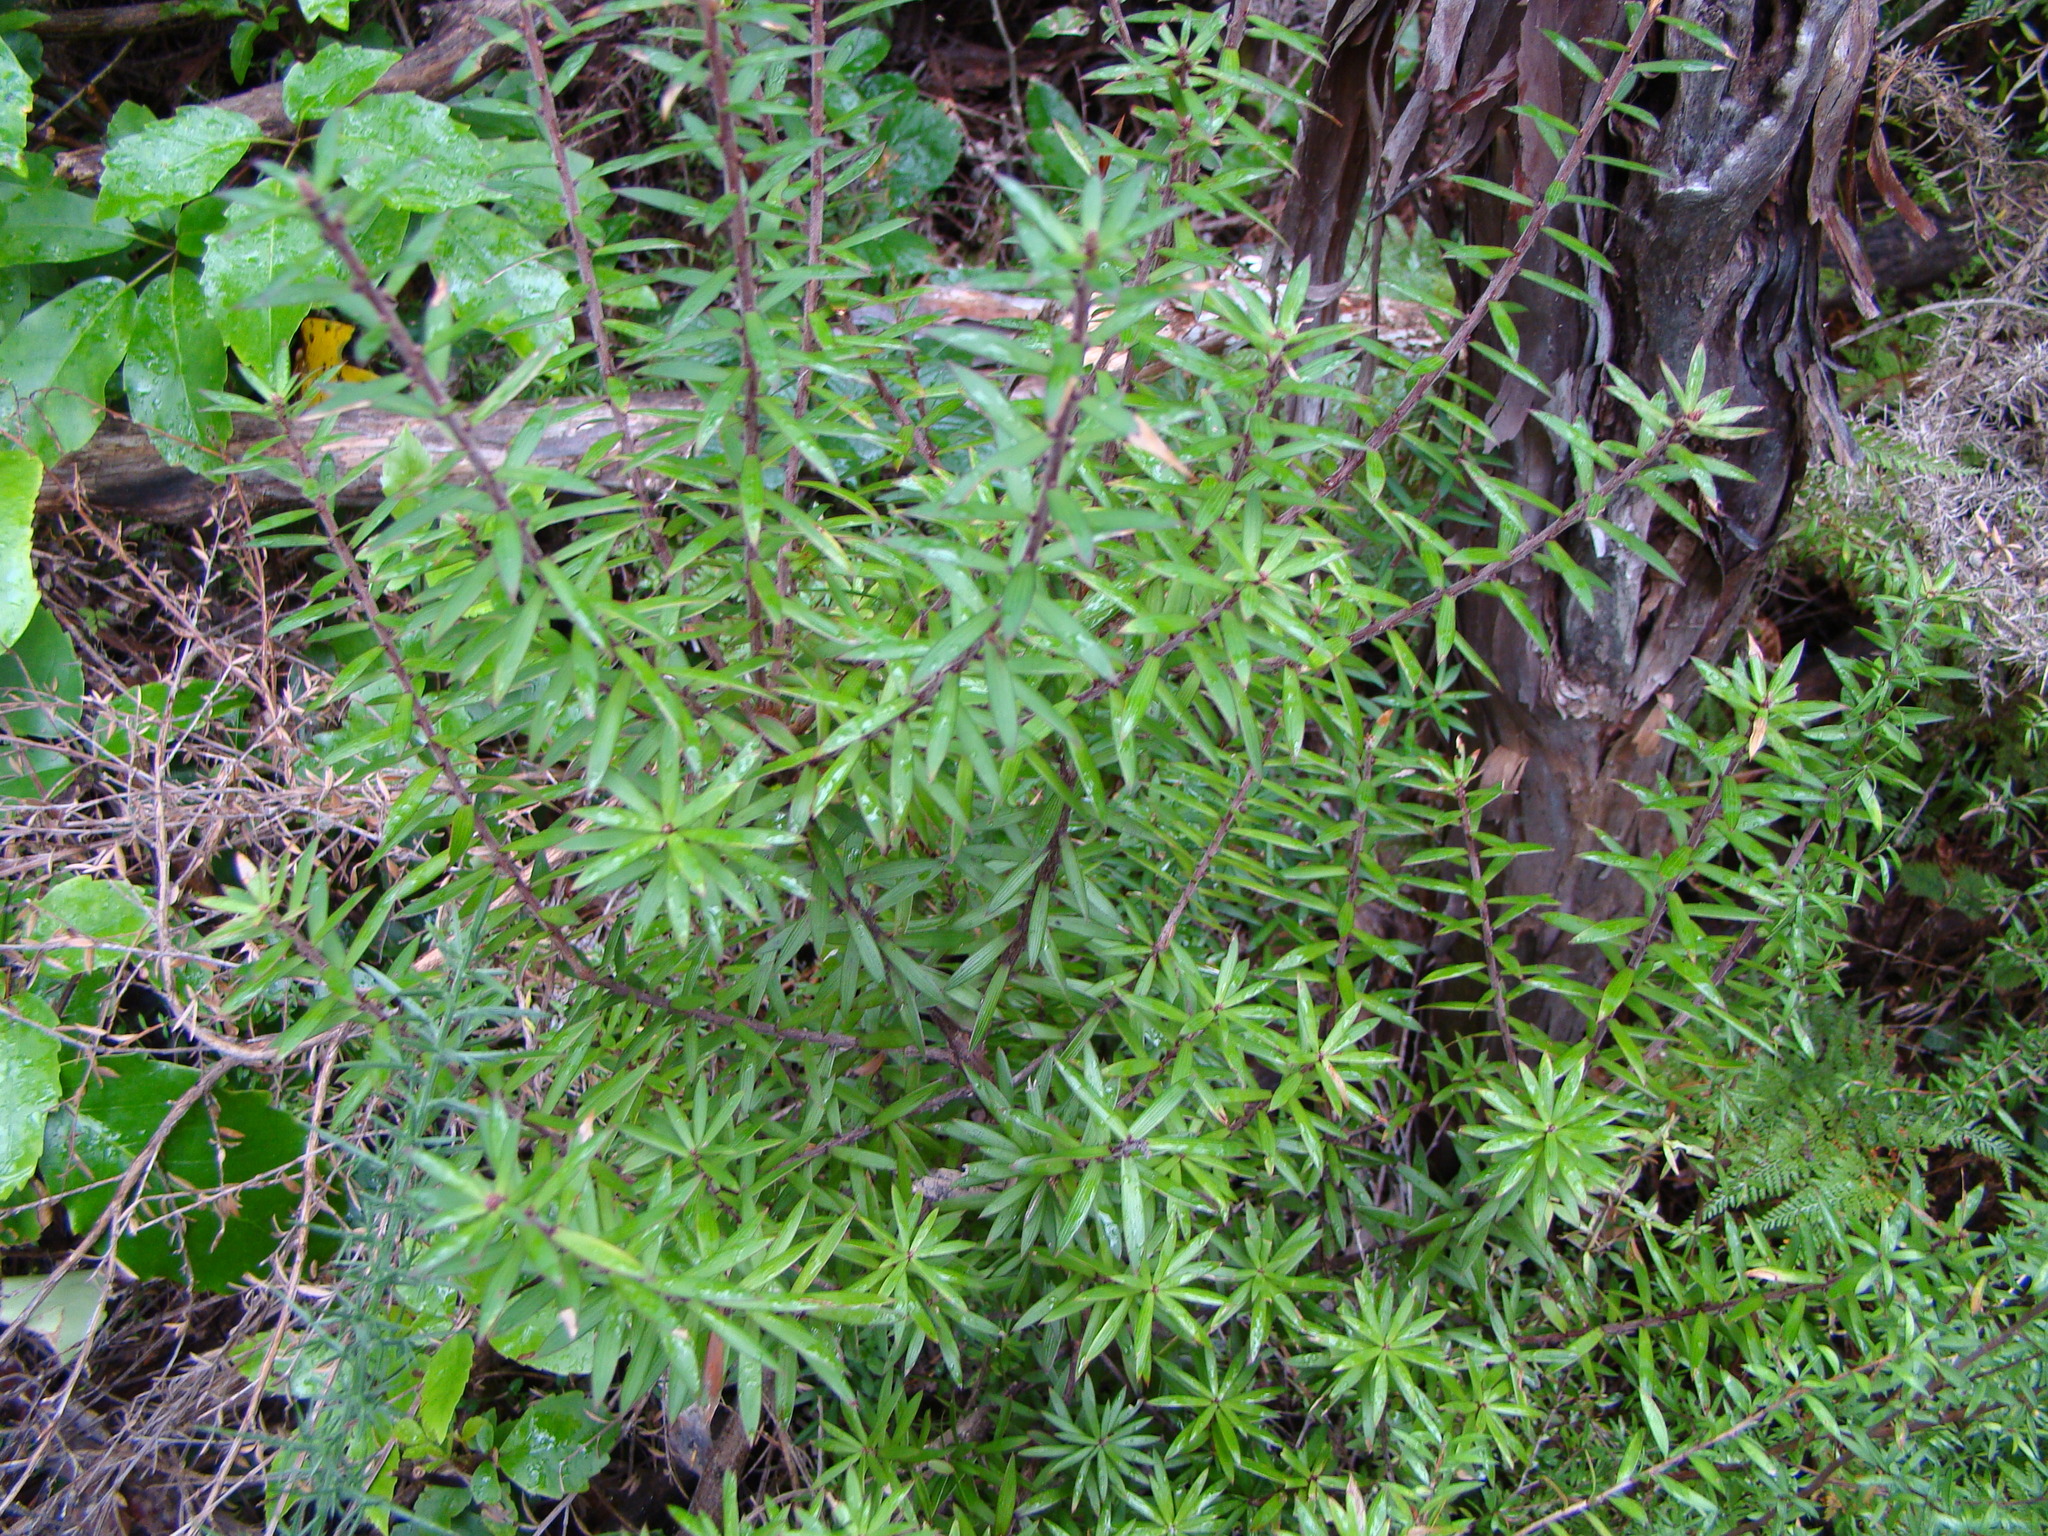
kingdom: Plantae
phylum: Tracheophyta
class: Magnoliopsida
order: Ericales
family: Ericaceae
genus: Leucopogon
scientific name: Leucopogon fasciculatus
